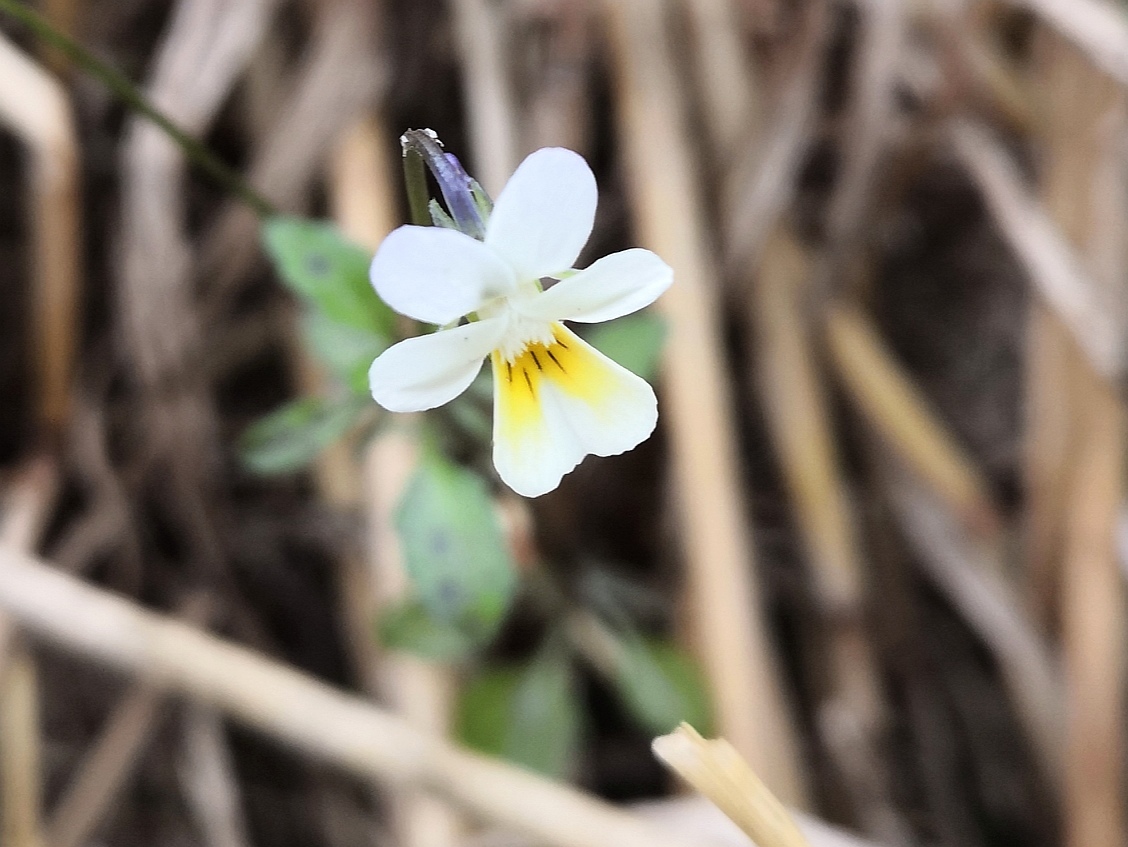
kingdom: Plantae
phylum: Tracheophyta
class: Magnoliopsida
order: Malpighiales
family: Violaceae
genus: Viola
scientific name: Viola arvensis
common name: Field pansy
